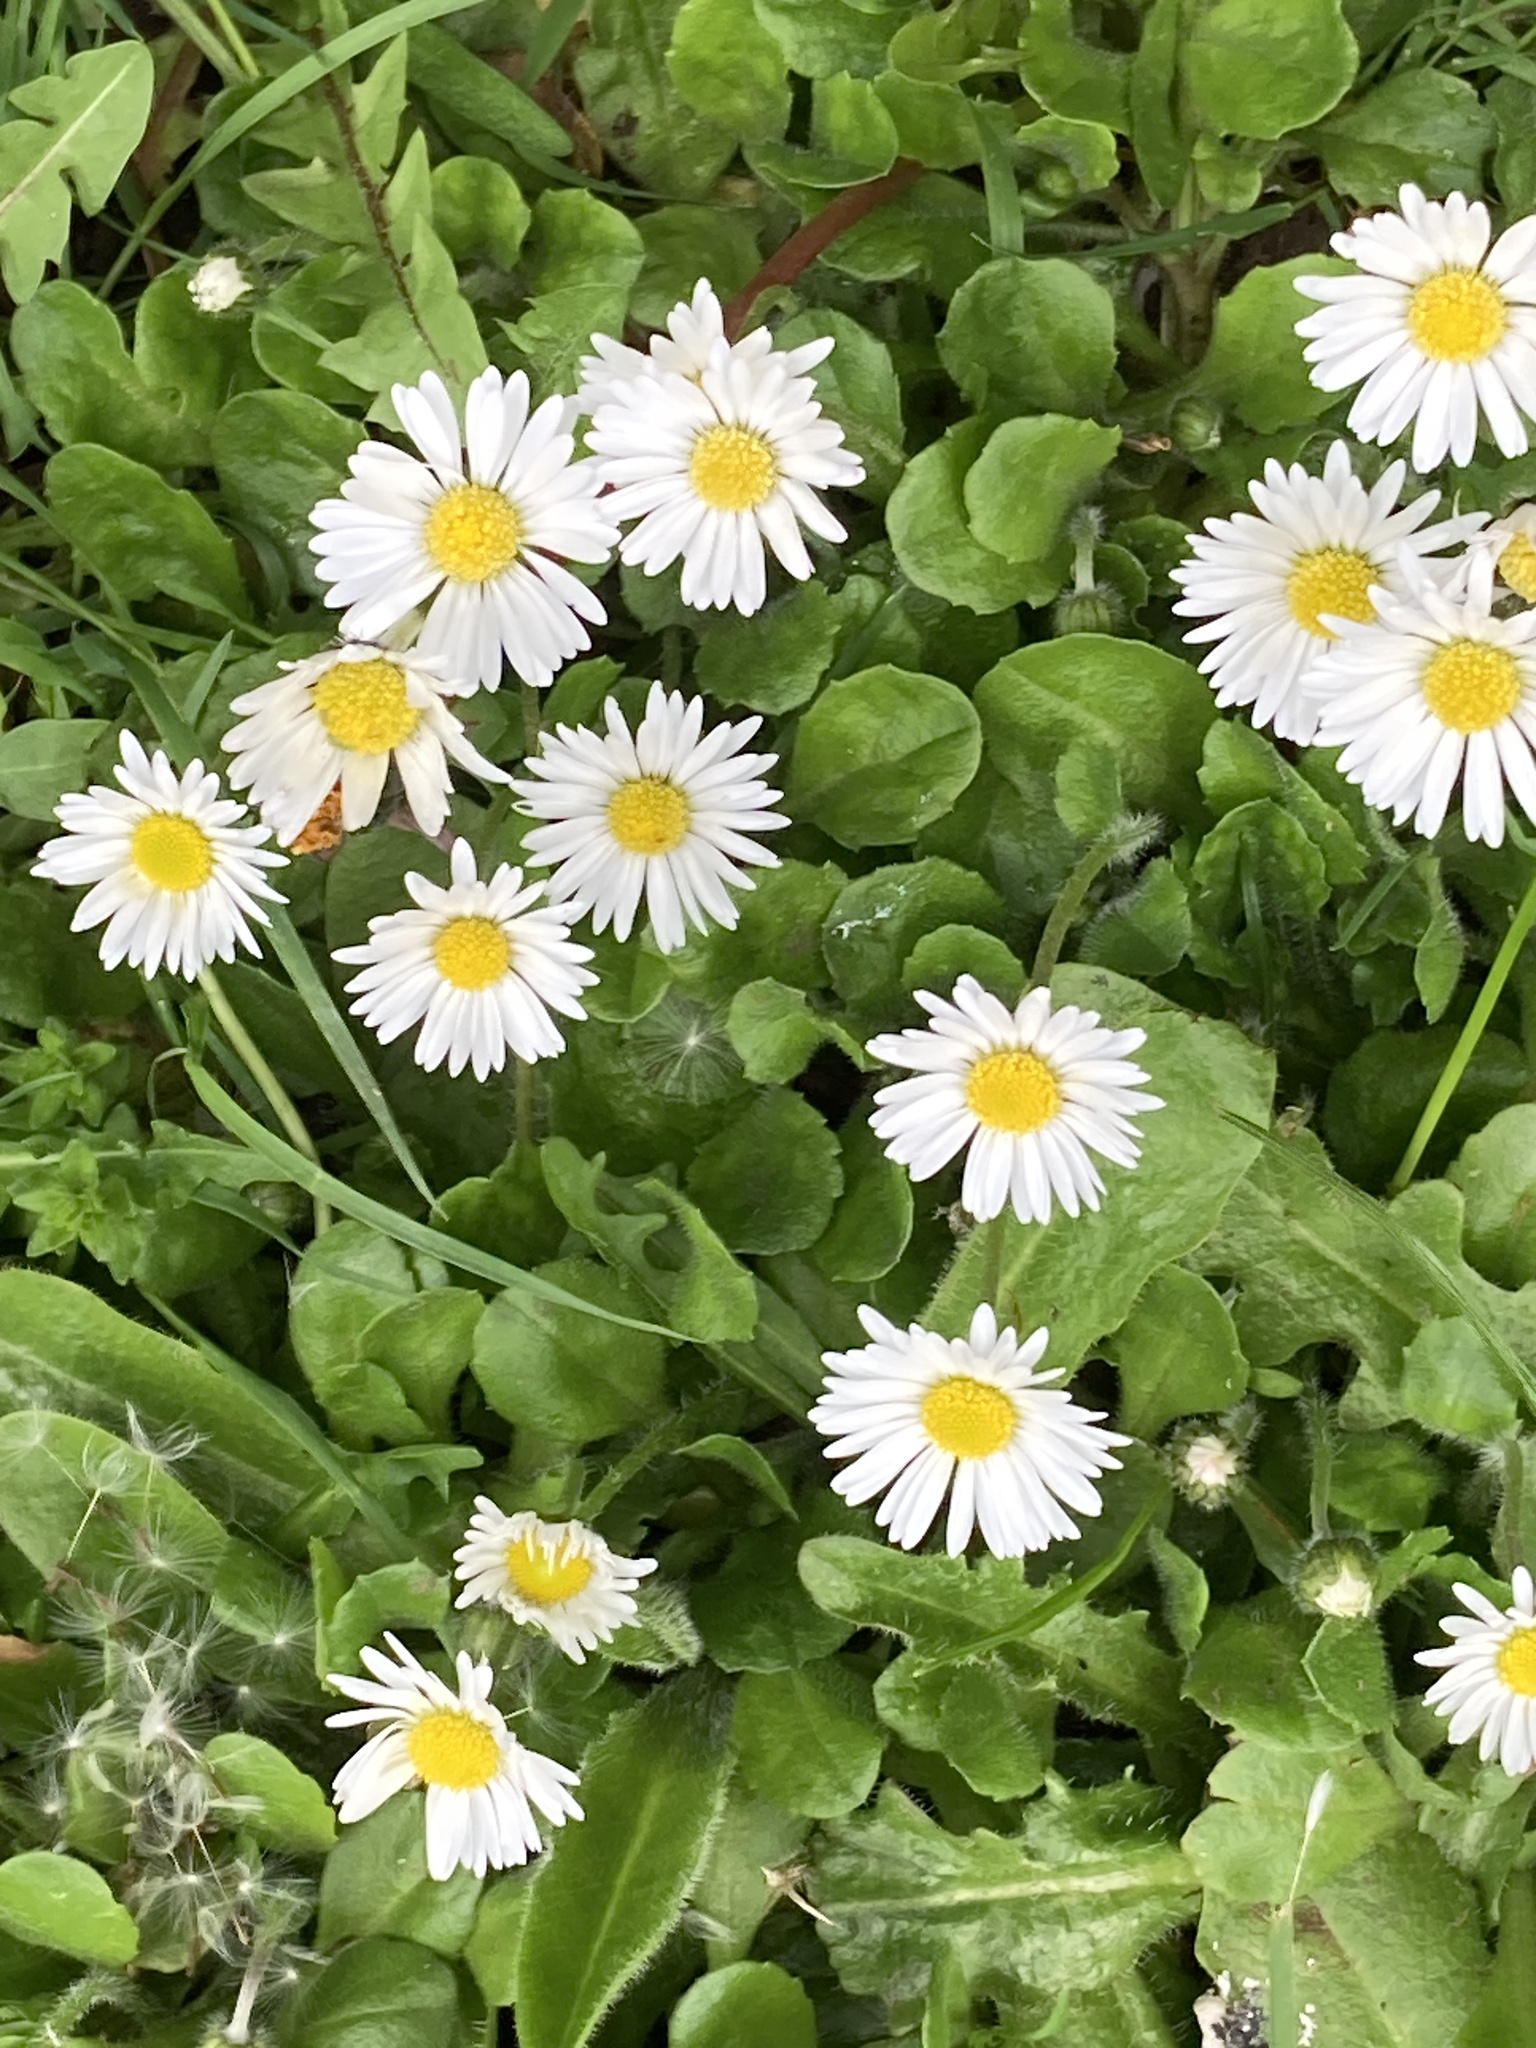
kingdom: Plantae
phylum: Tracheophyta
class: Magnoliopsida
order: Asterales
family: Asteraceae
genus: Bellis
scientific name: Bellis perennis
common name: Lawndaisy
